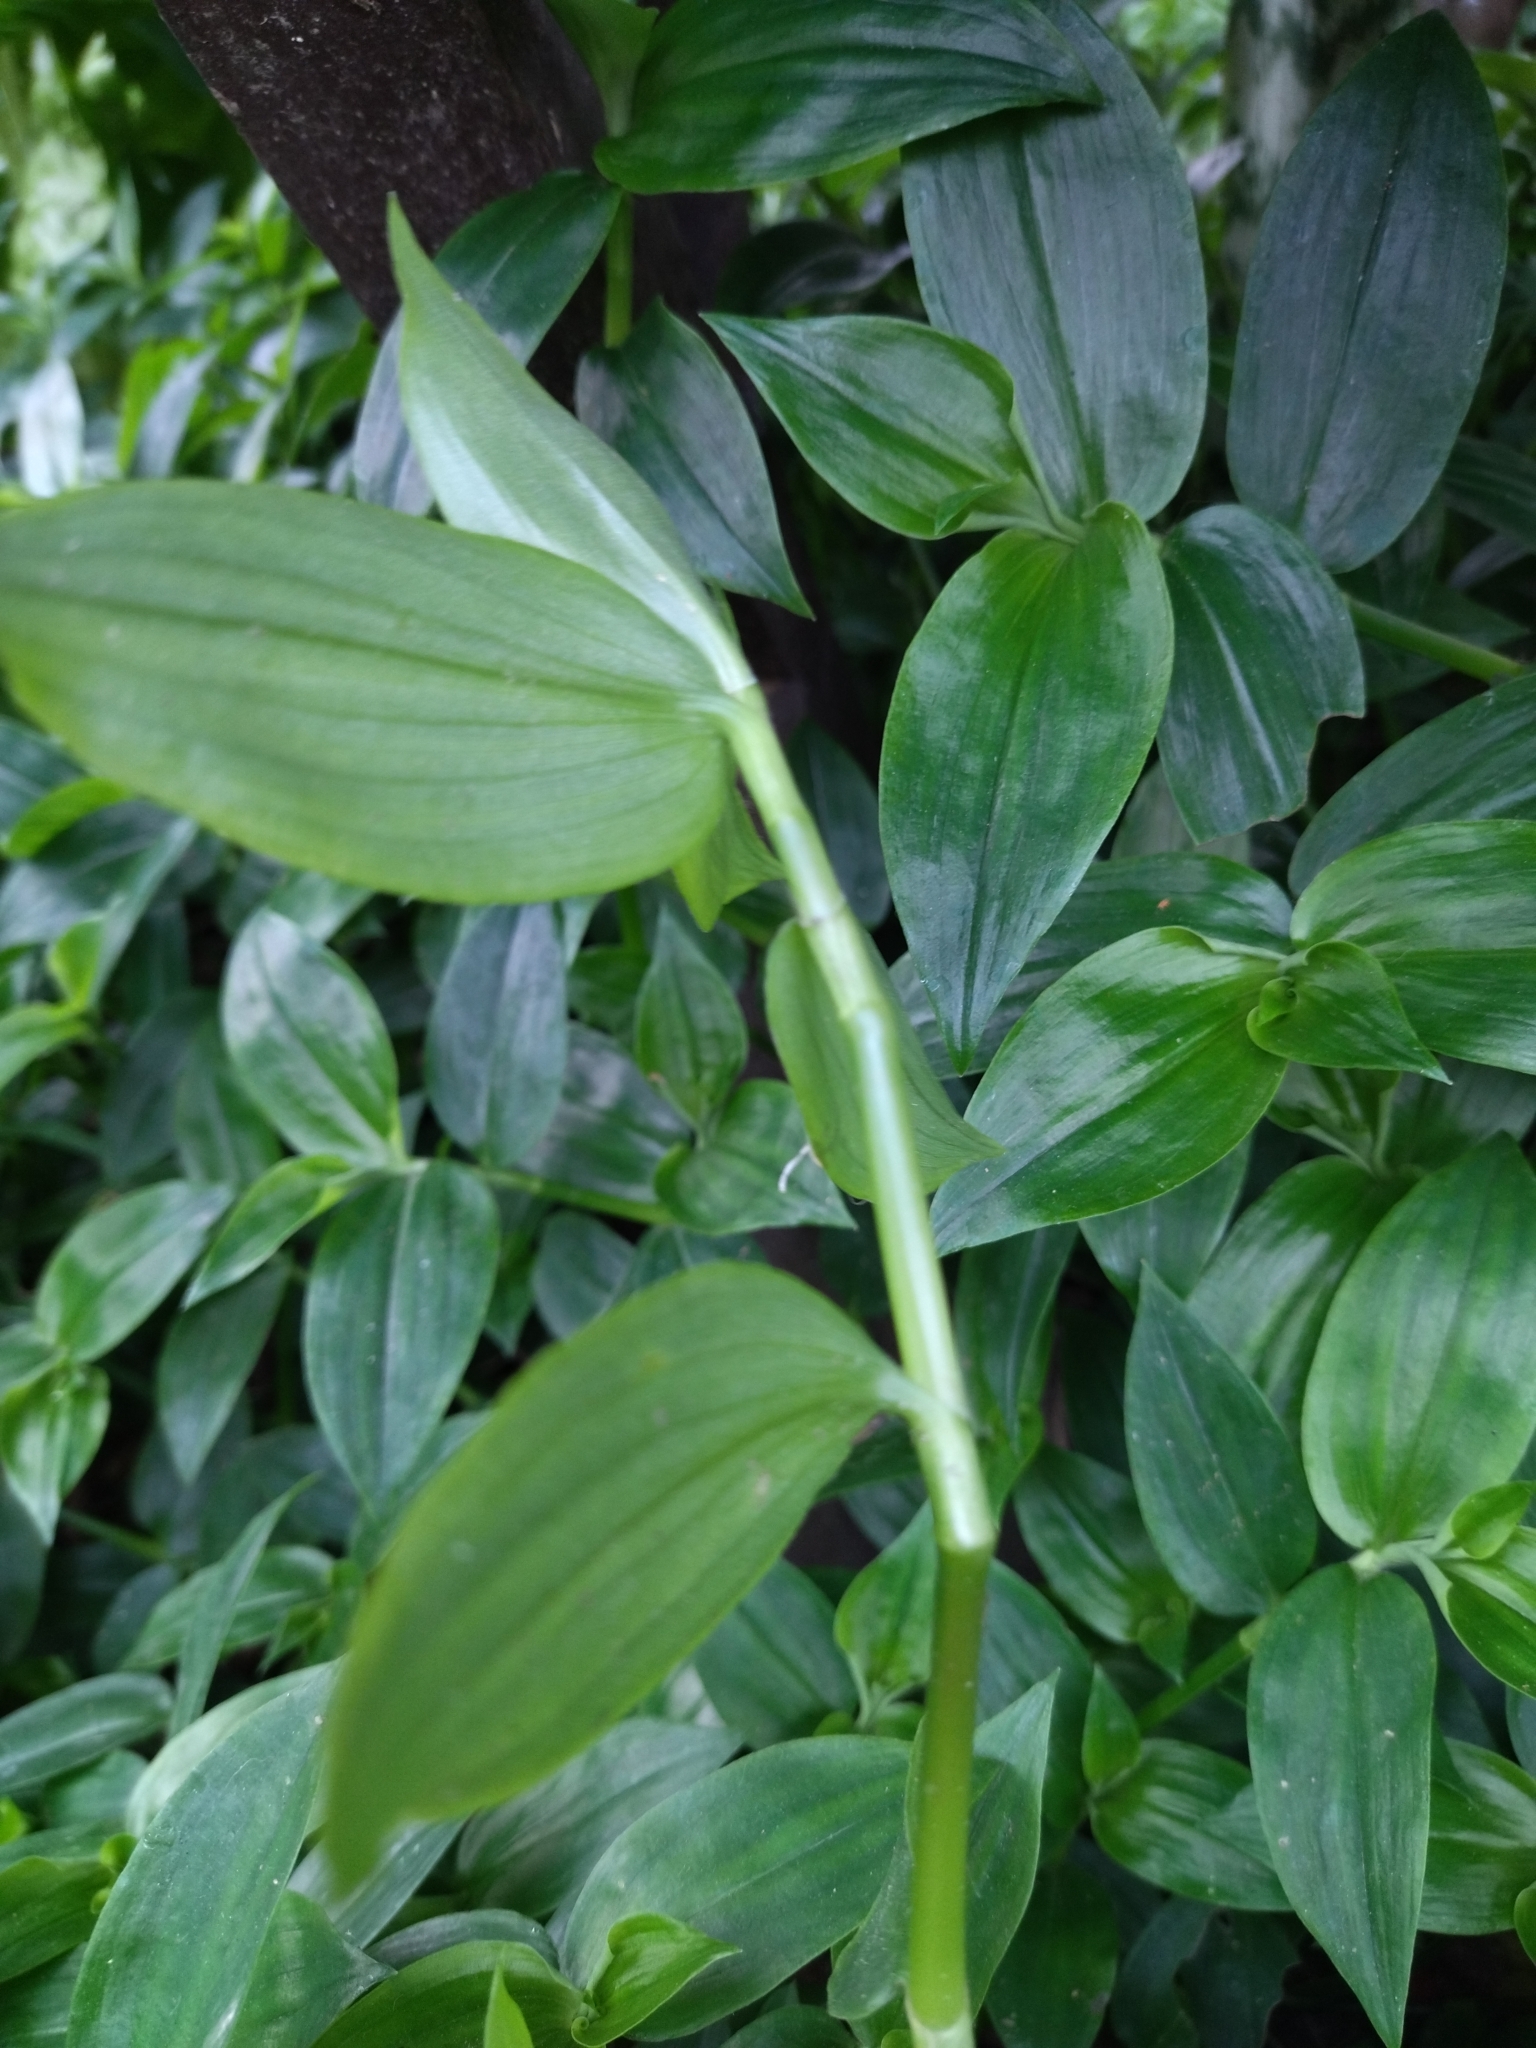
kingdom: Plantae
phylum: Tracheophyta
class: Liliopsida
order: Commelinales
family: Commelinaceae
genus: Tradescantia
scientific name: Tradescantia fluminensis
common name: Wandering-jew
